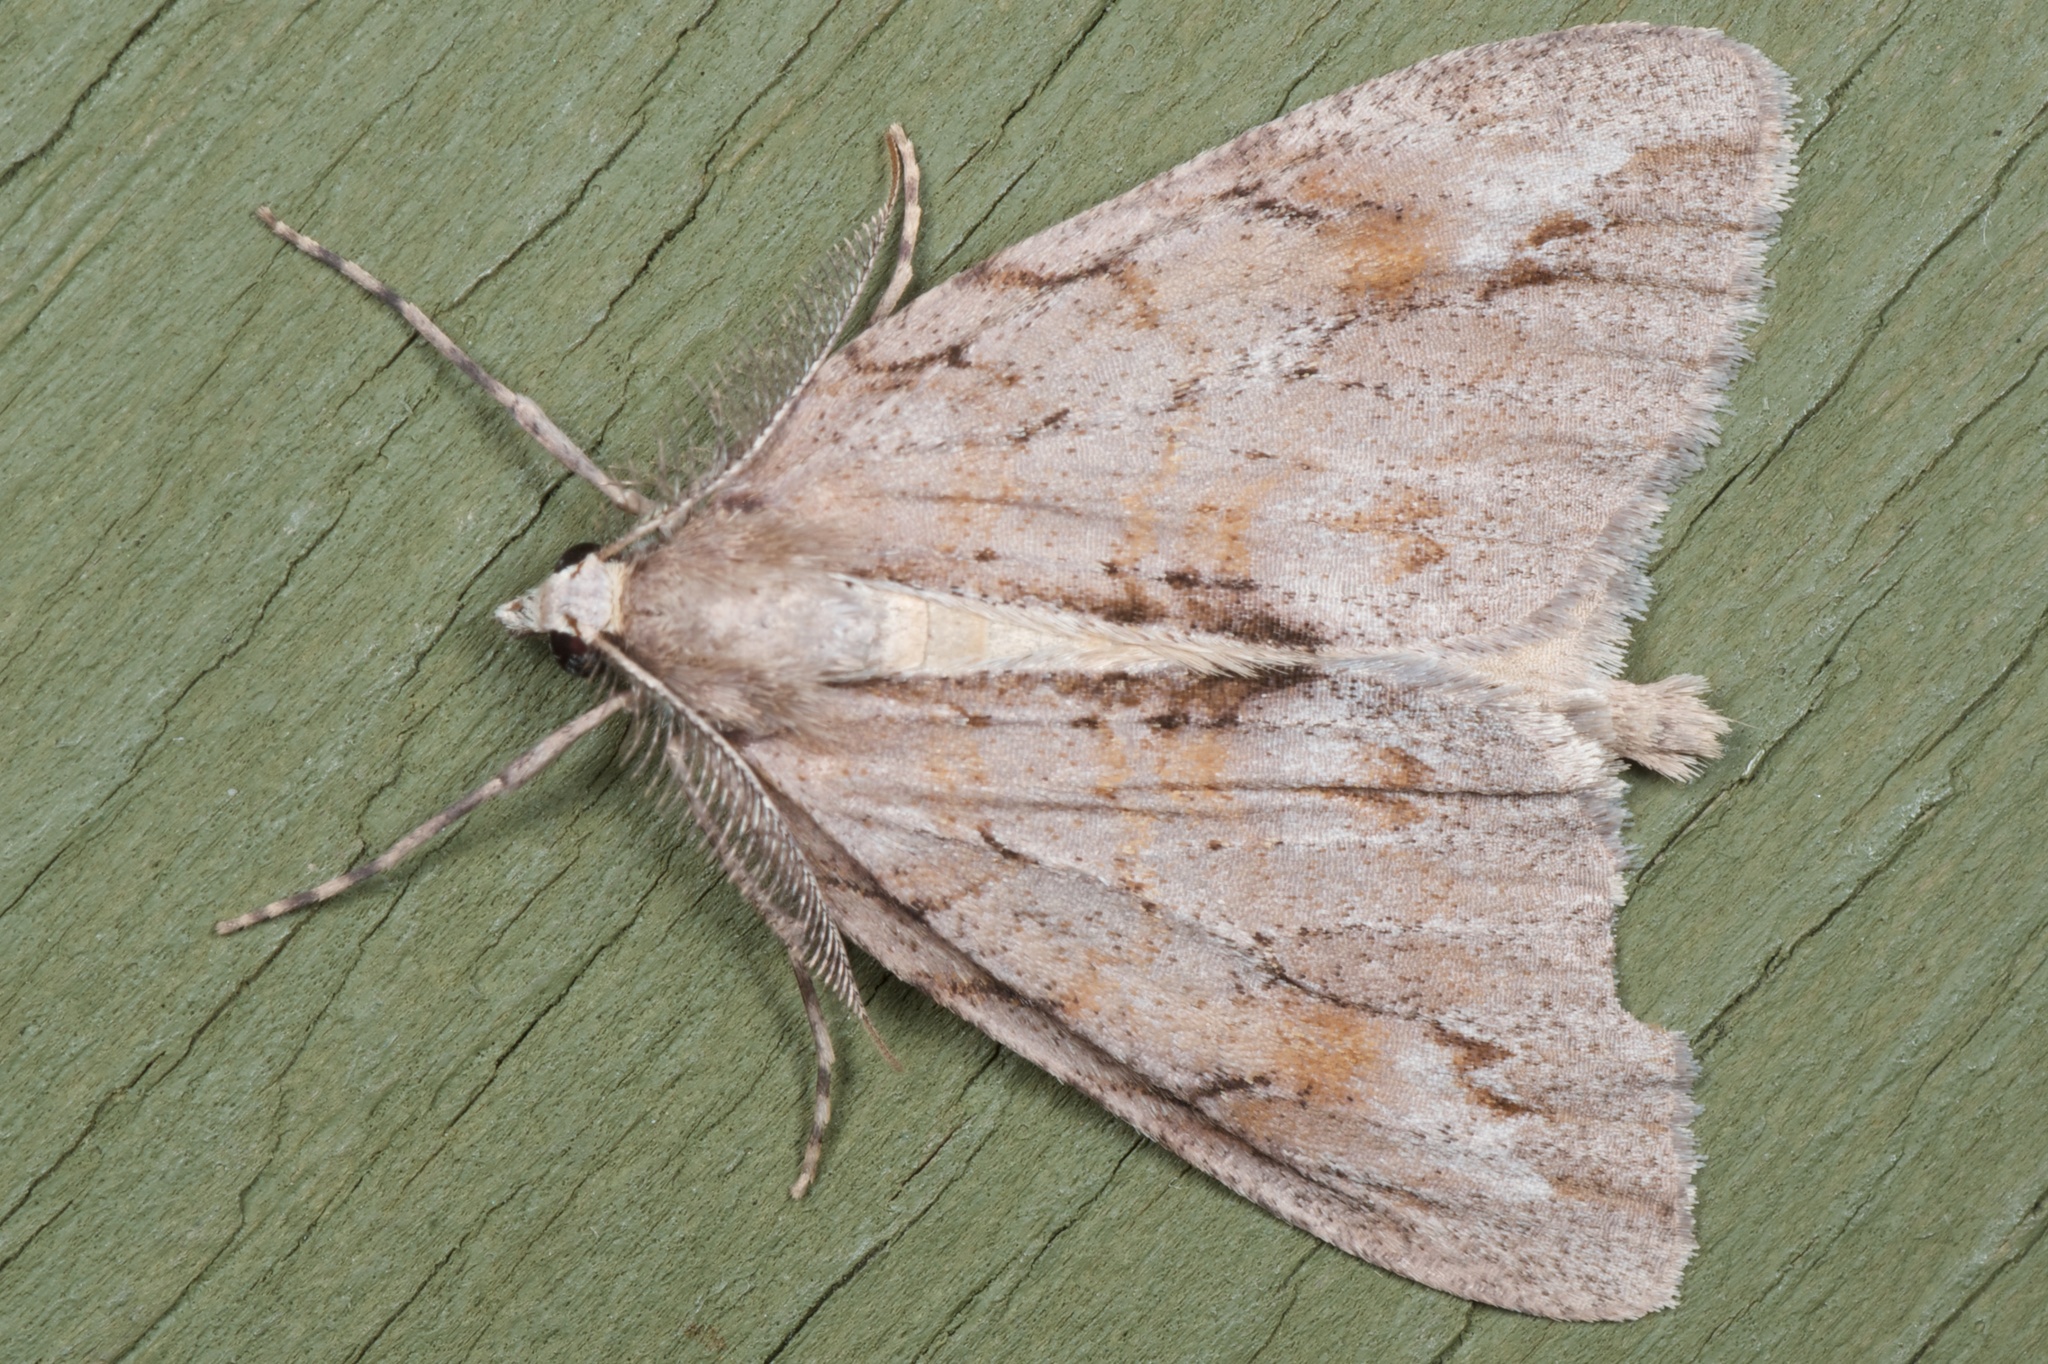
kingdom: Animalia
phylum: Arthropoda
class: Insecta
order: Lepidoptera
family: Geometridae
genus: Pseudocoremia
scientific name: Pseudocoremia lupinata
